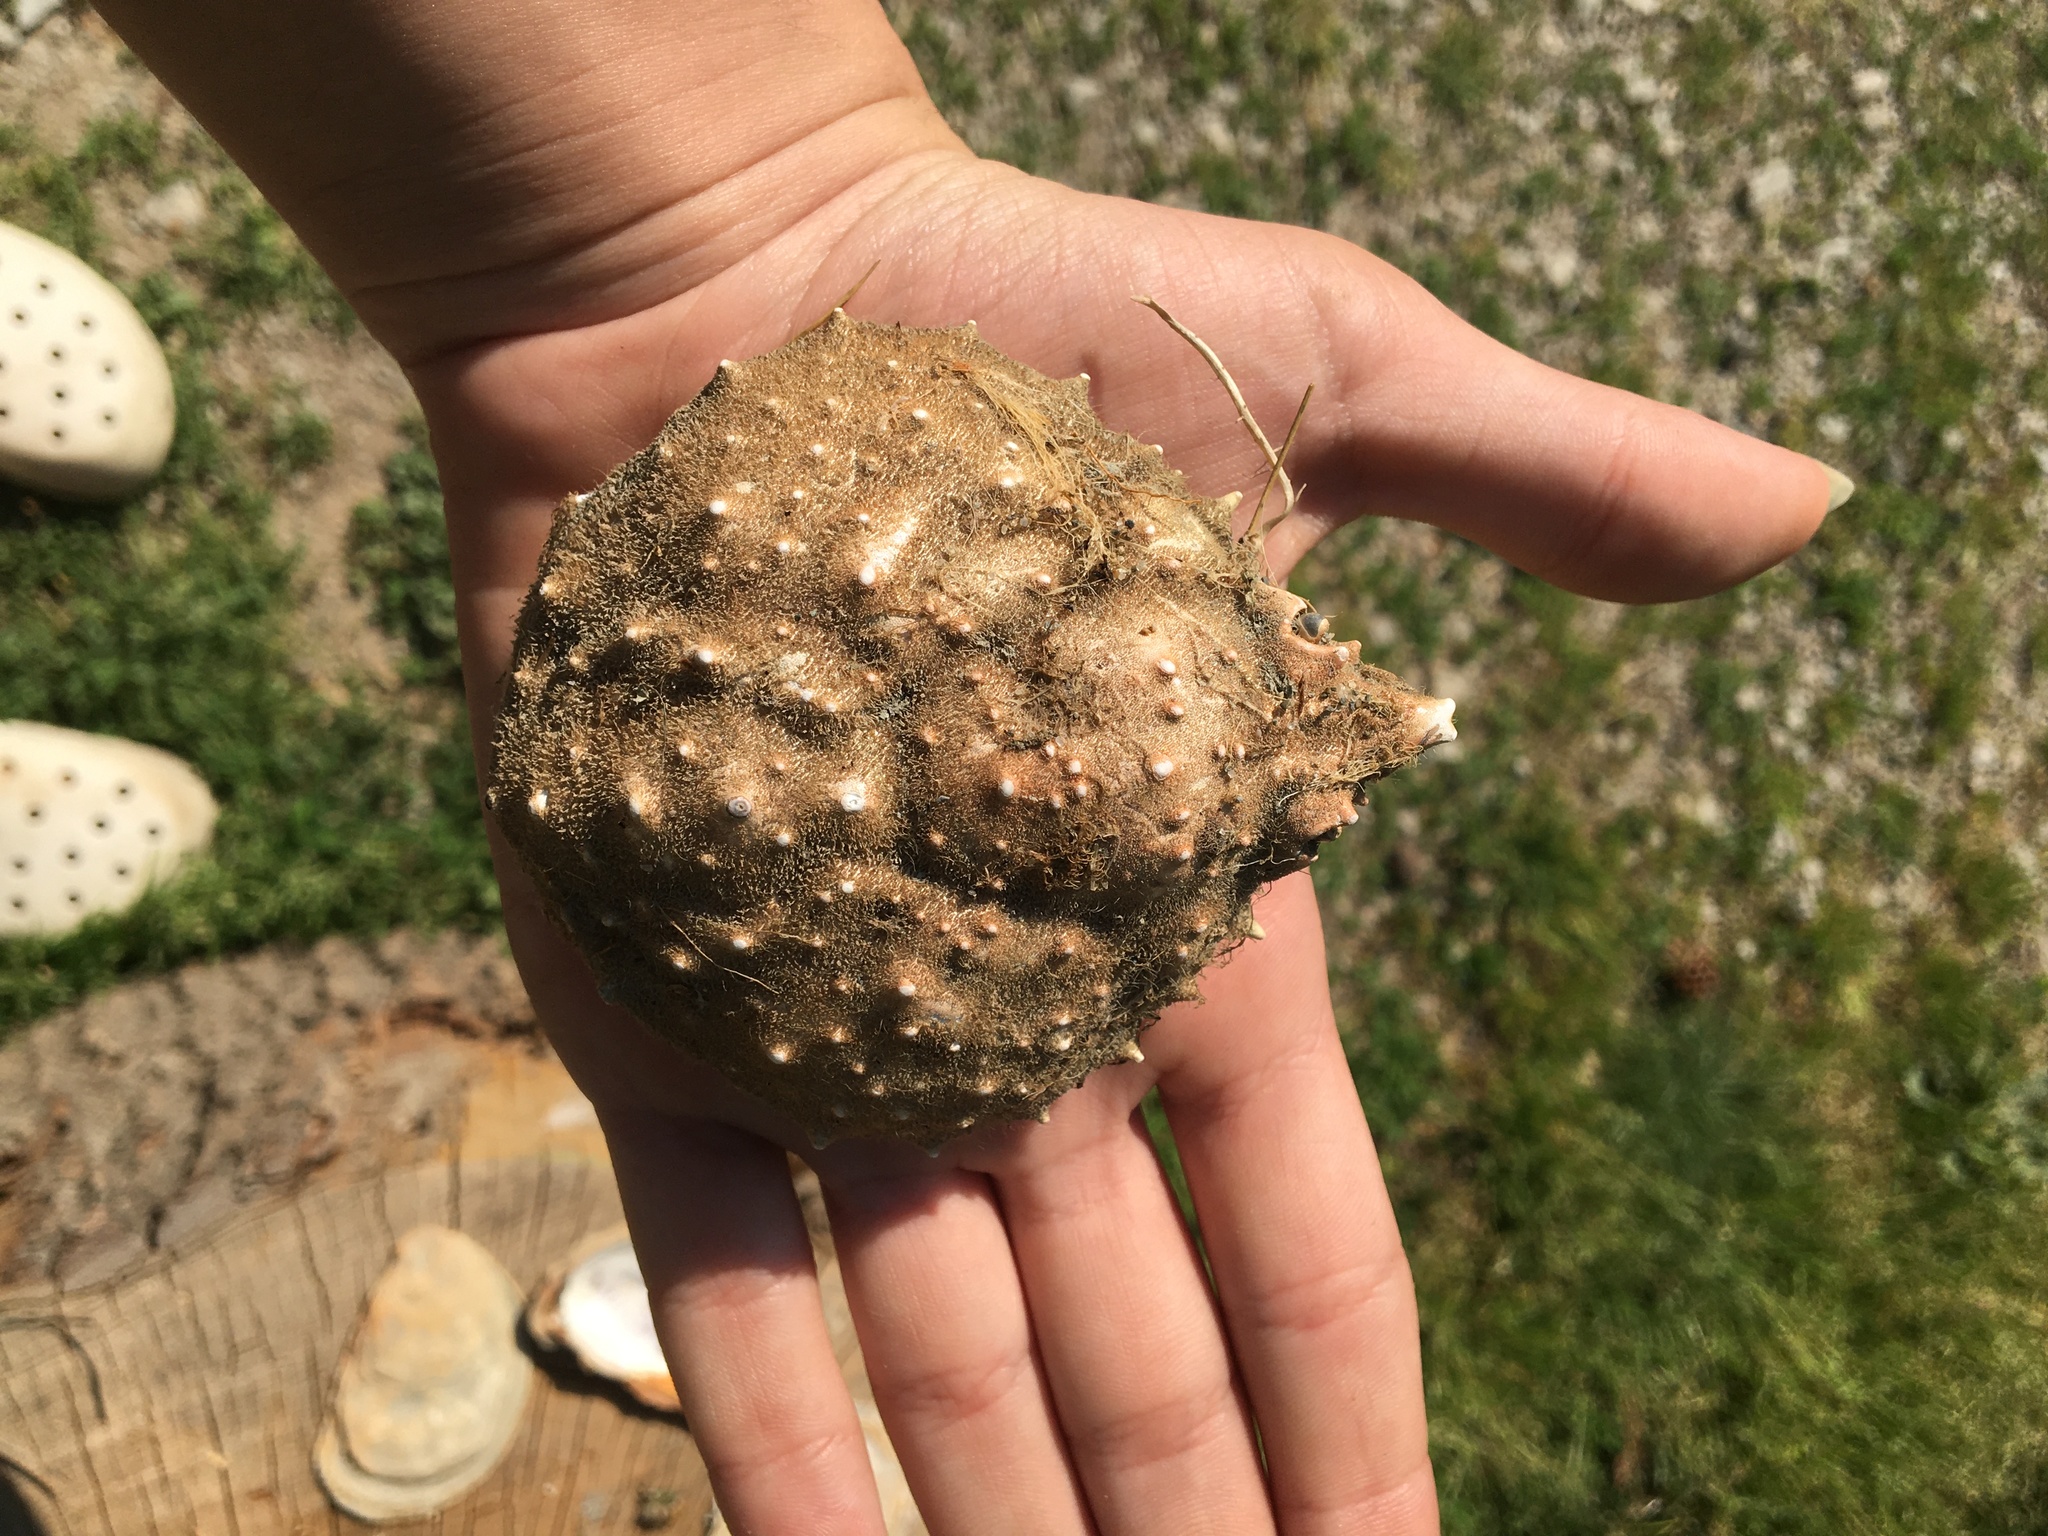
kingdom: Animalia
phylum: Arthropoda
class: Malacostraca
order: Decapoda
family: Epialtidae
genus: Libinia
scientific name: Libinia emarginata
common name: Common spider crab
